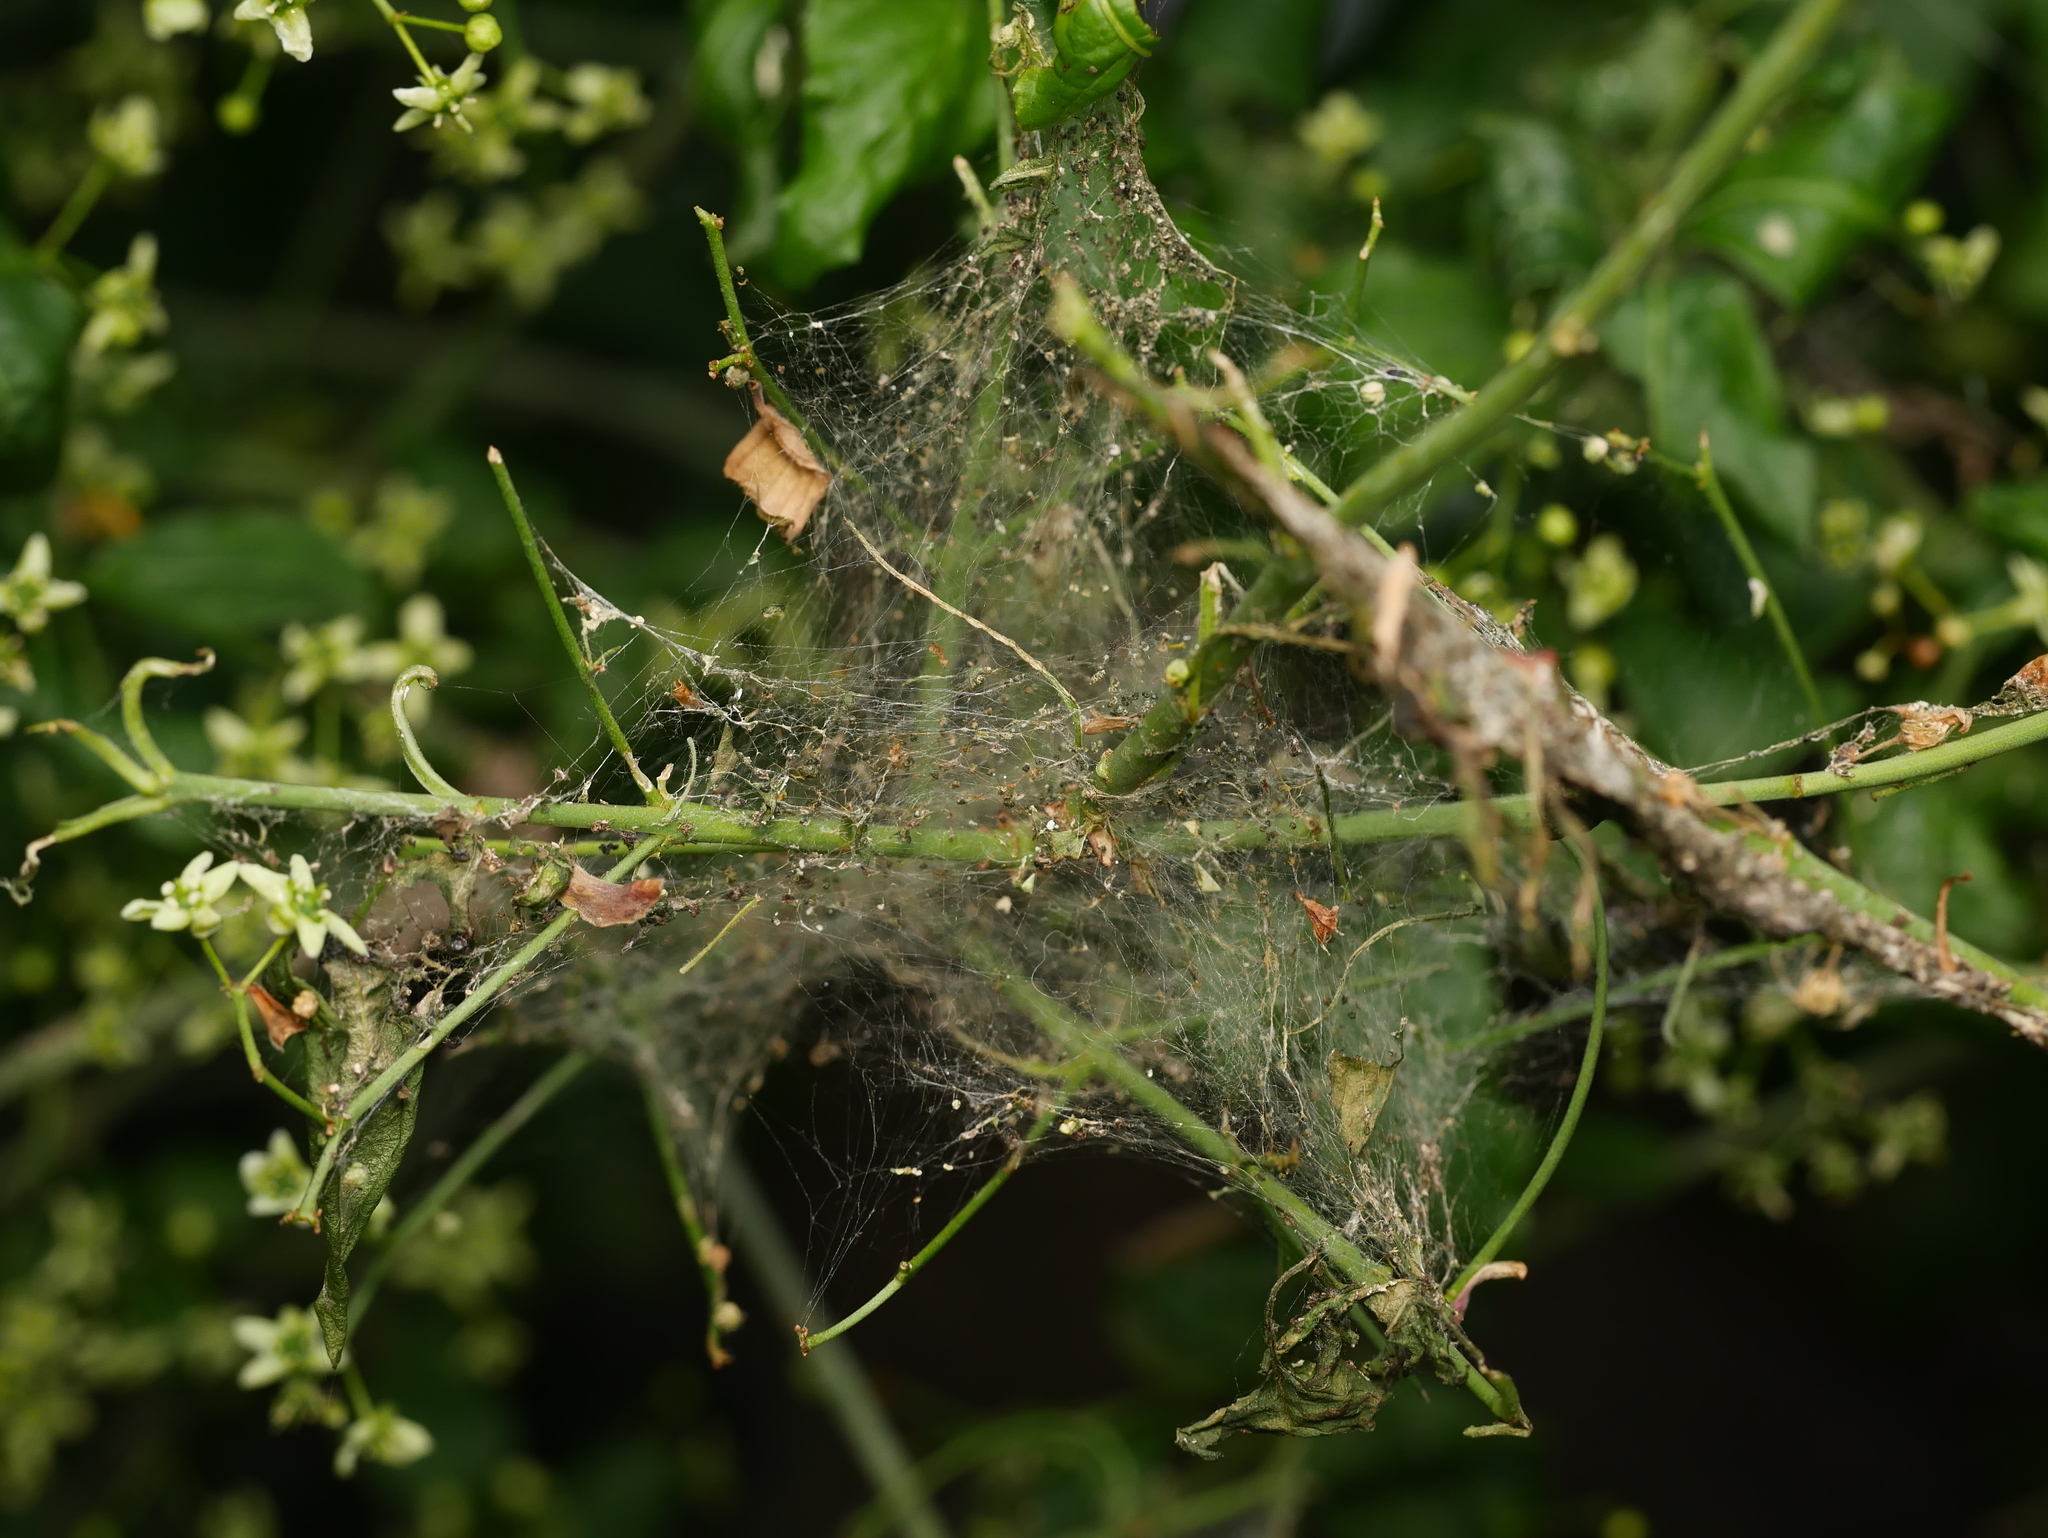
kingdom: Animalia
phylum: Arthropoda
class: Insecta
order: Lepidoptera
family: Yponomeutidae
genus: Yponomeuta
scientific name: Yponomeuta cagnagellus
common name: Spindle ermine
